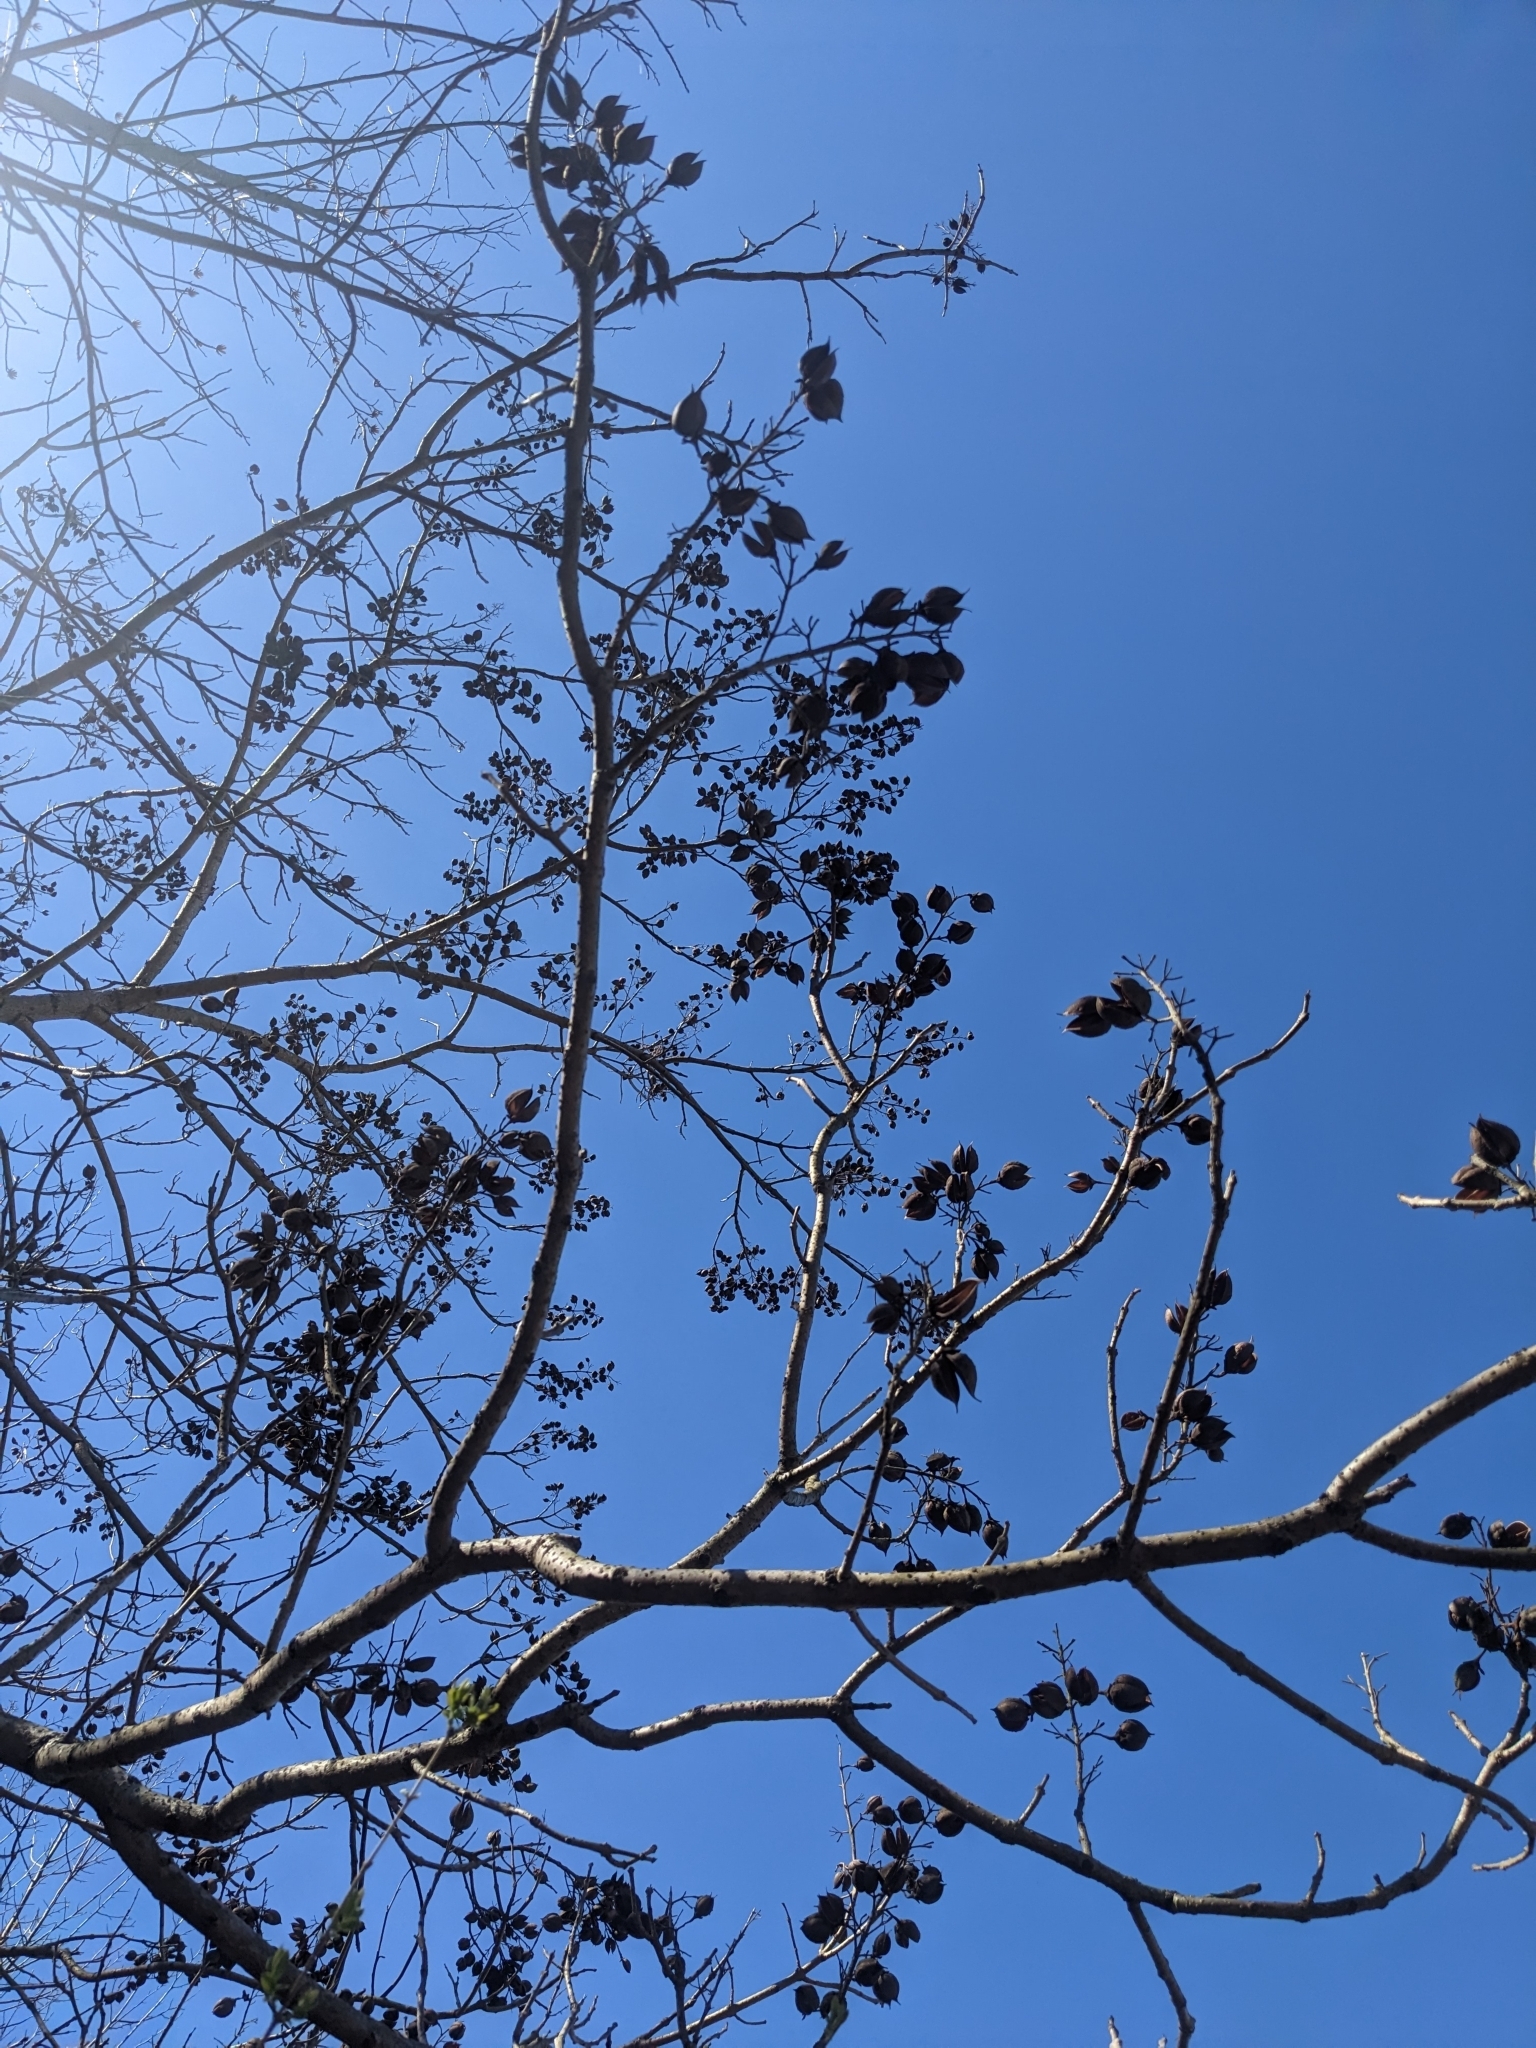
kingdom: Plantae
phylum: Tracheophyta
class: Magnoliopsida
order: Lamiales
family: Paulowniaceae
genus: Paulownia
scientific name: Paulownia tomentosa
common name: Foxglove-tree
